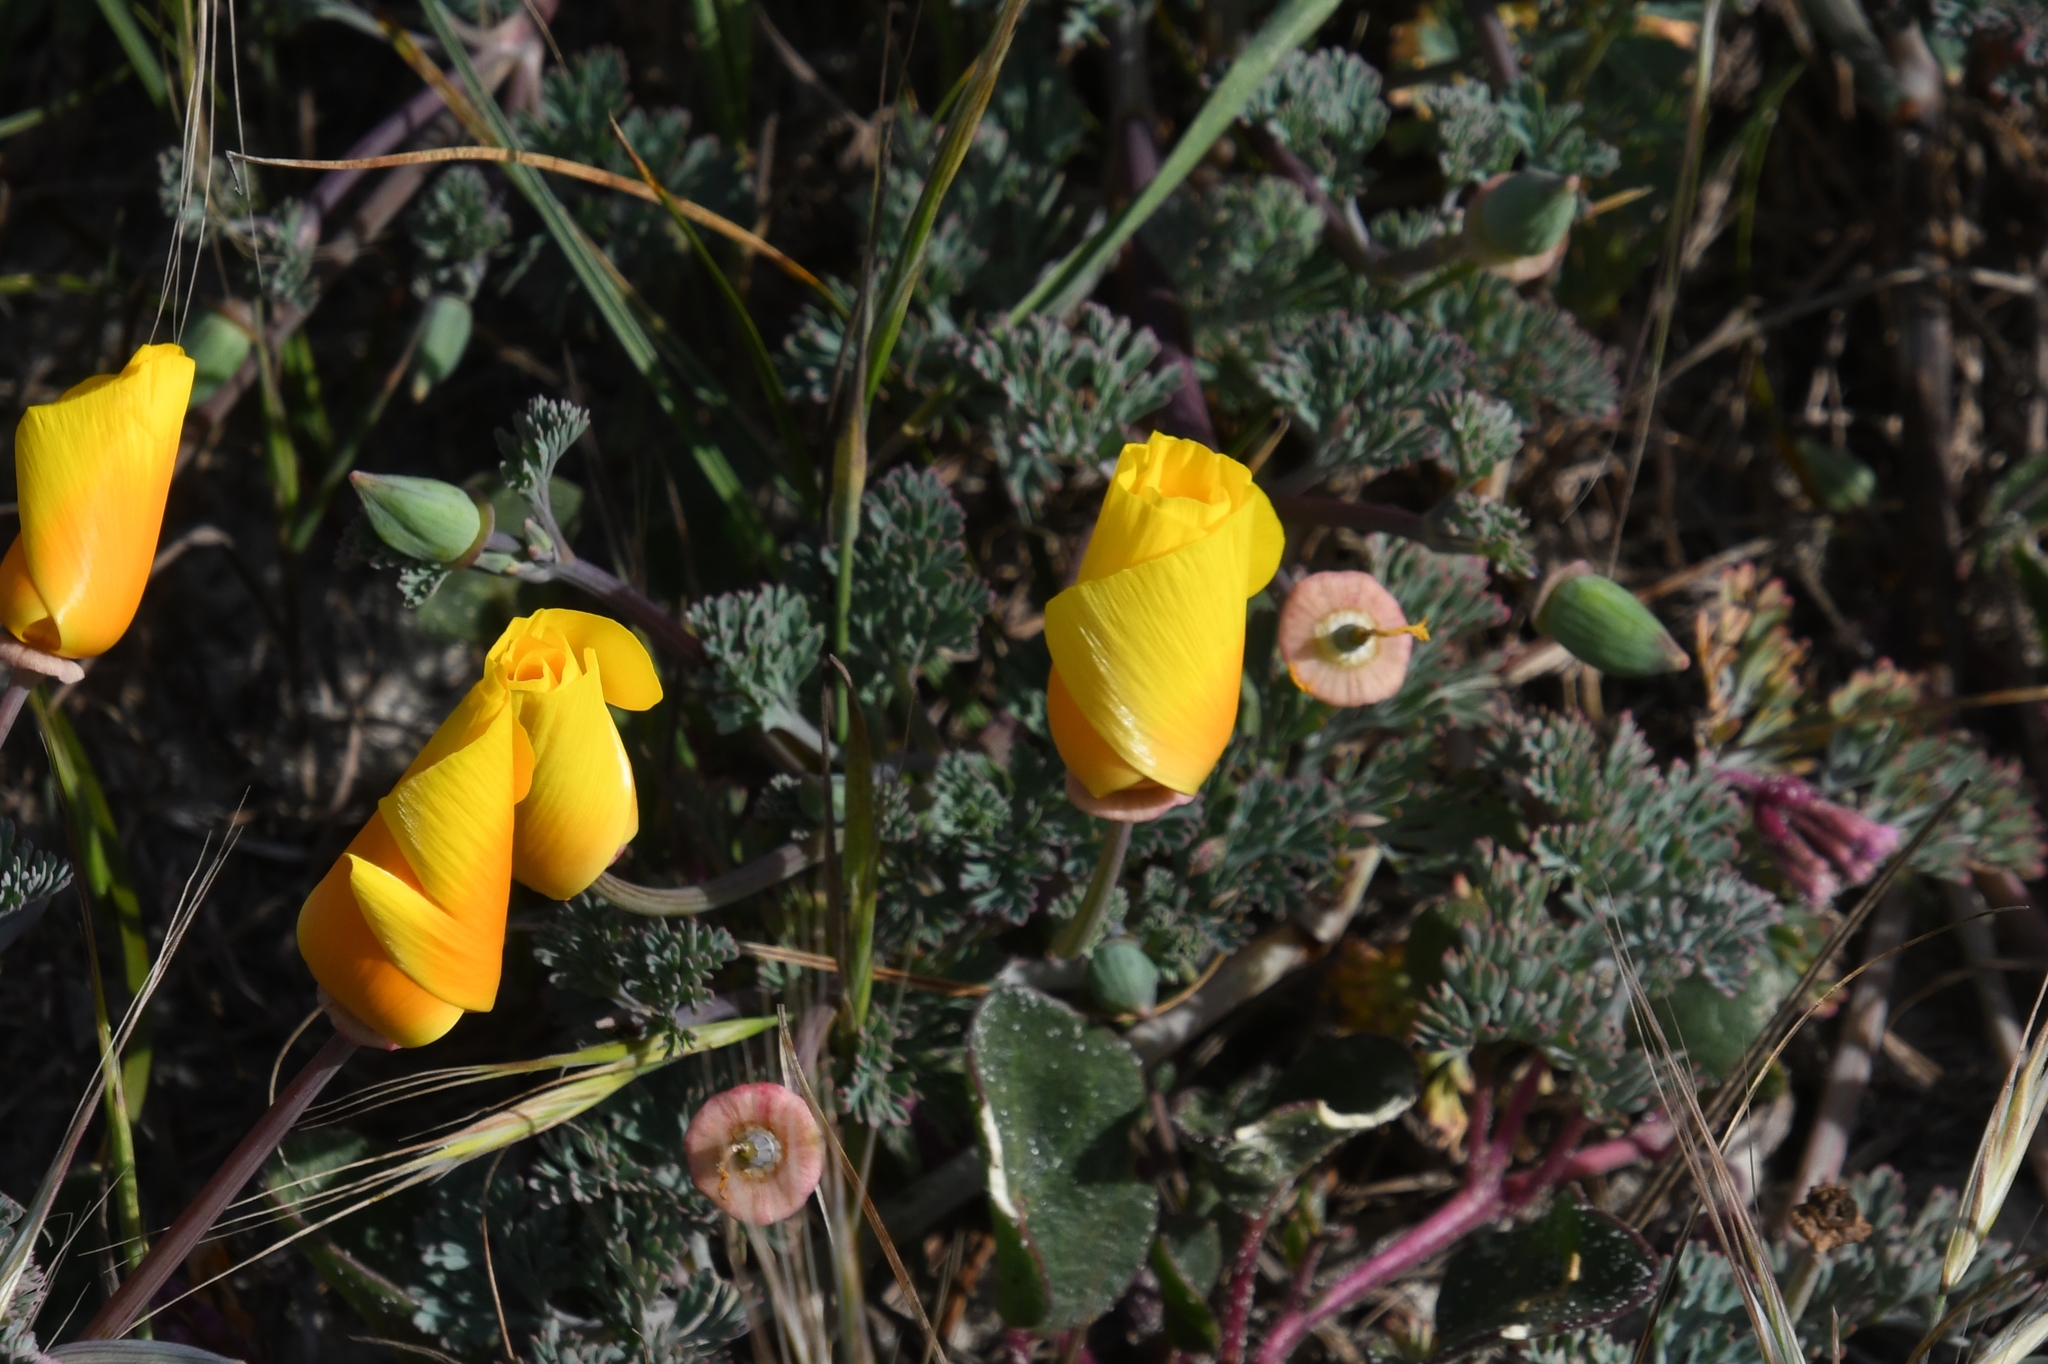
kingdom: Plantae
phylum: Tracheophyta
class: Magnoliopsida
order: Ranunculales
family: Papaveraceae
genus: Eschscholzia
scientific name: Eschscholzia californica
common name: California poppy
